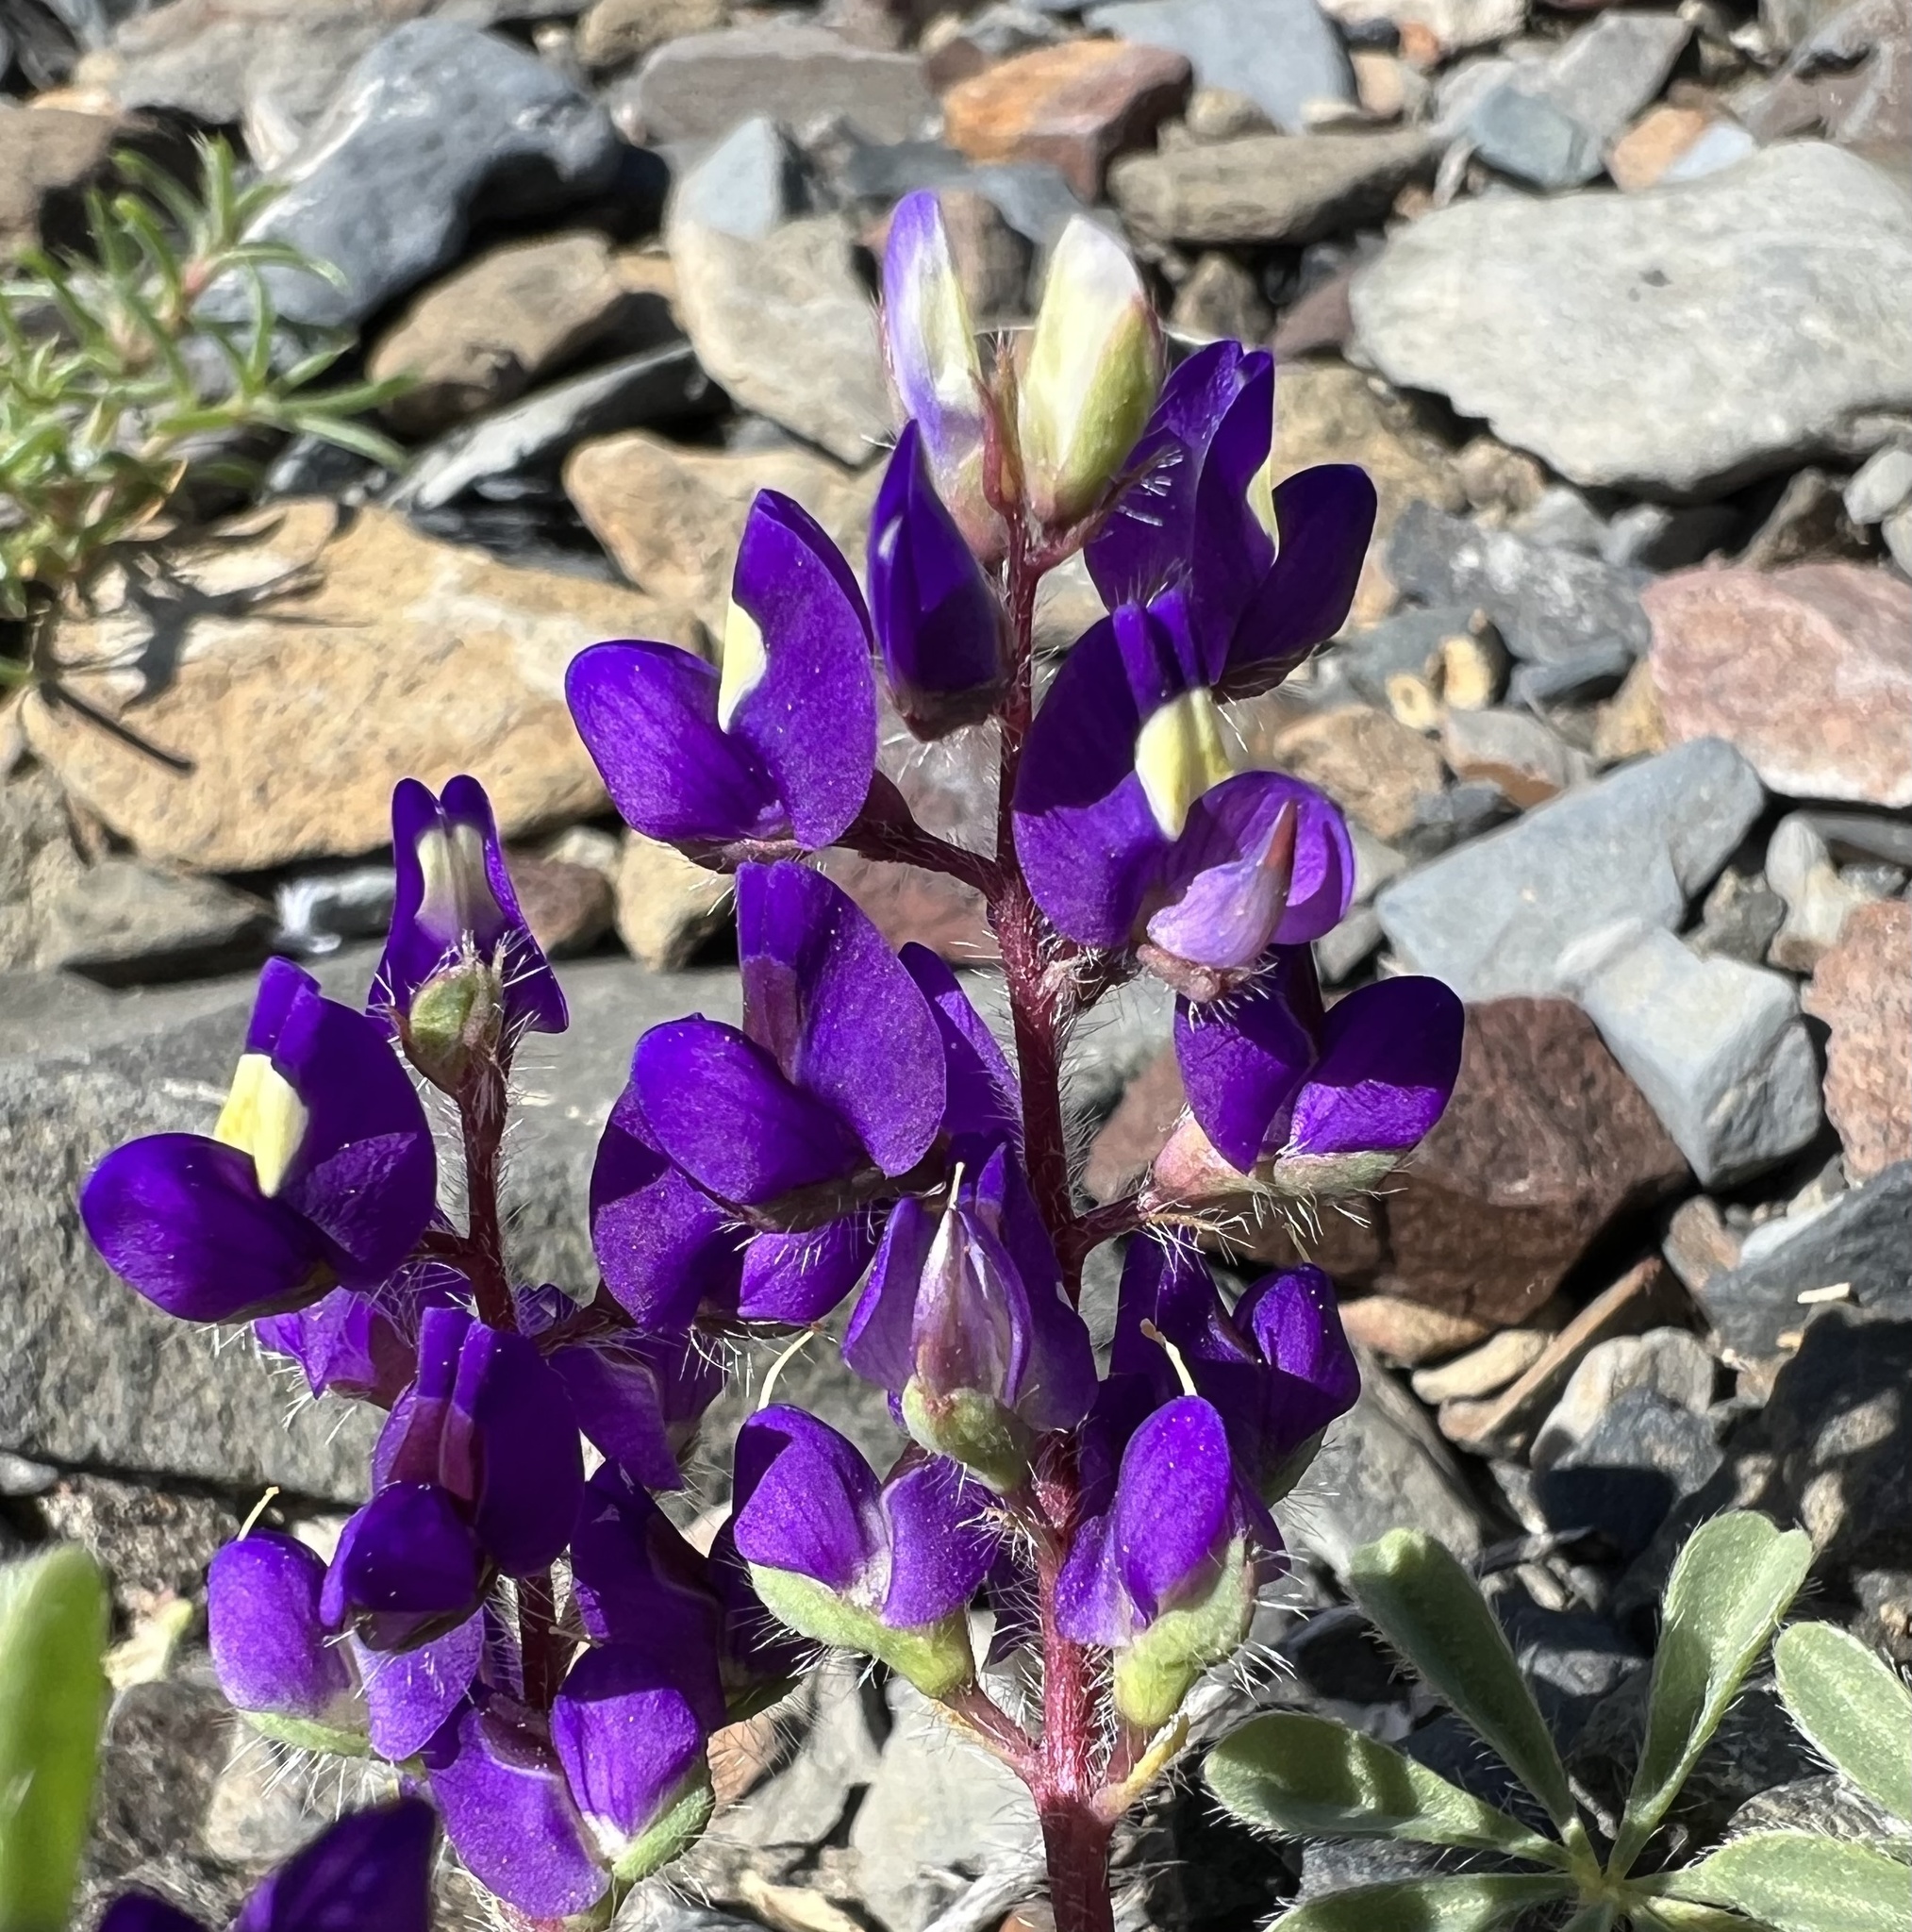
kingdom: Plantae
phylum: Tracheophyta
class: Magnoliopsida
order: Fabales
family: Fabaceae
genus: Lupinus
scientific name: Lupinus flavoculatus
